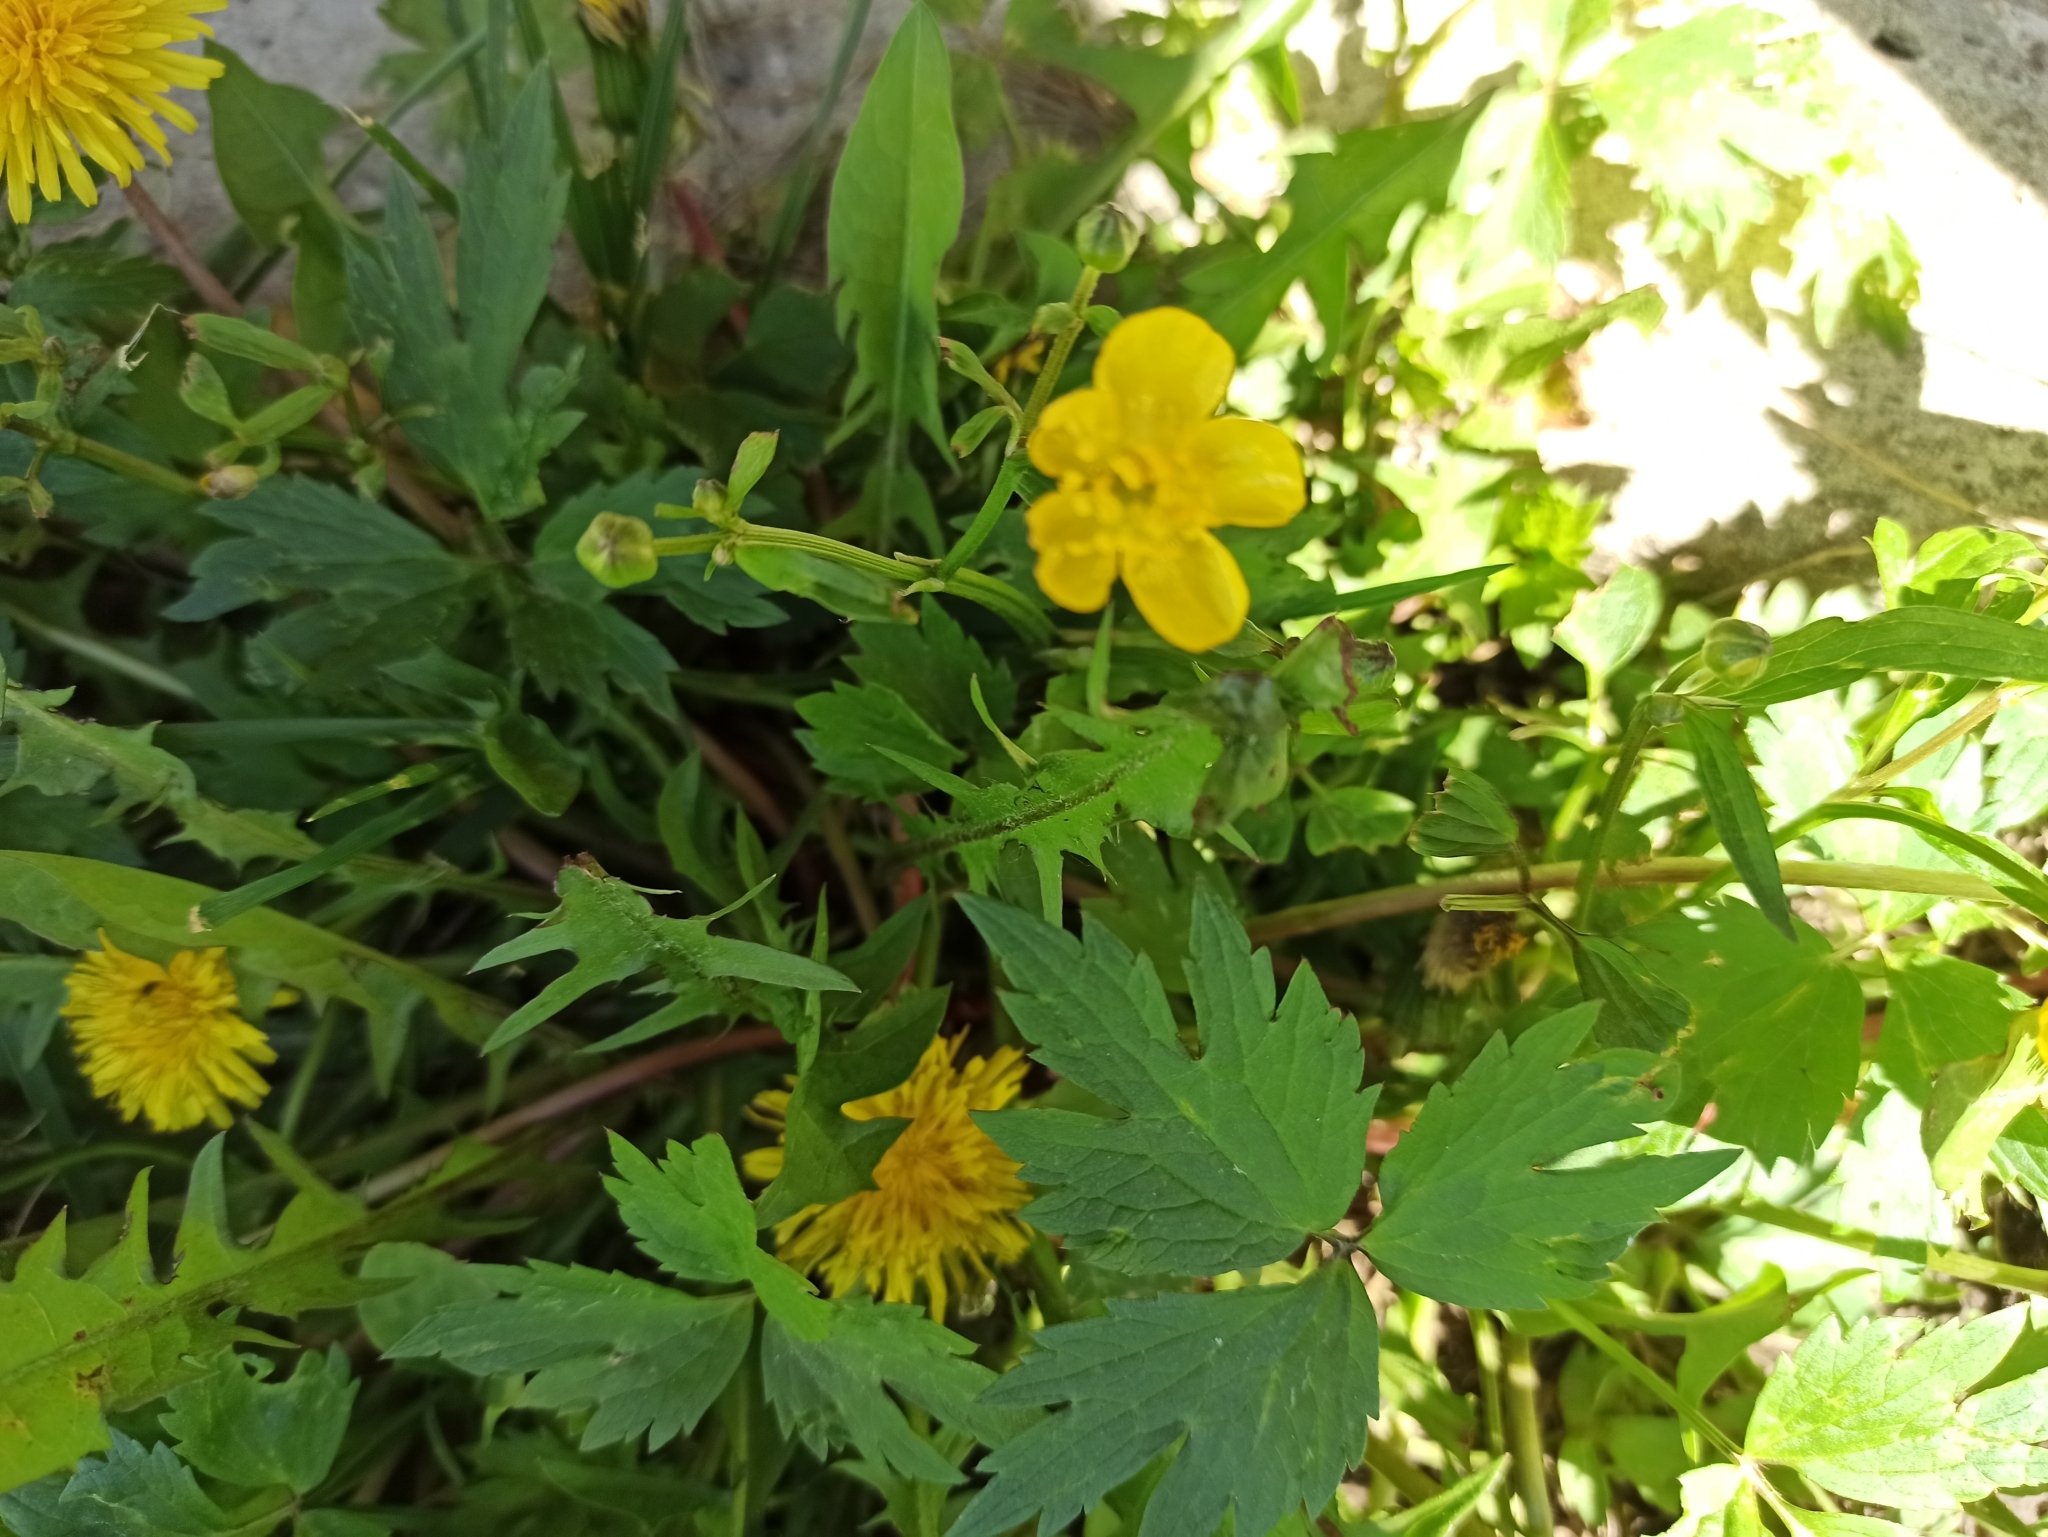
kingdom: Plantae
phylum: Tracheophyta
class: Magnoliopsida
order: Ranunculales
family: Ranunculaceae
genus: Ranunculus
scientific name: Ranunculus repens
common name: Creeping buttercup
